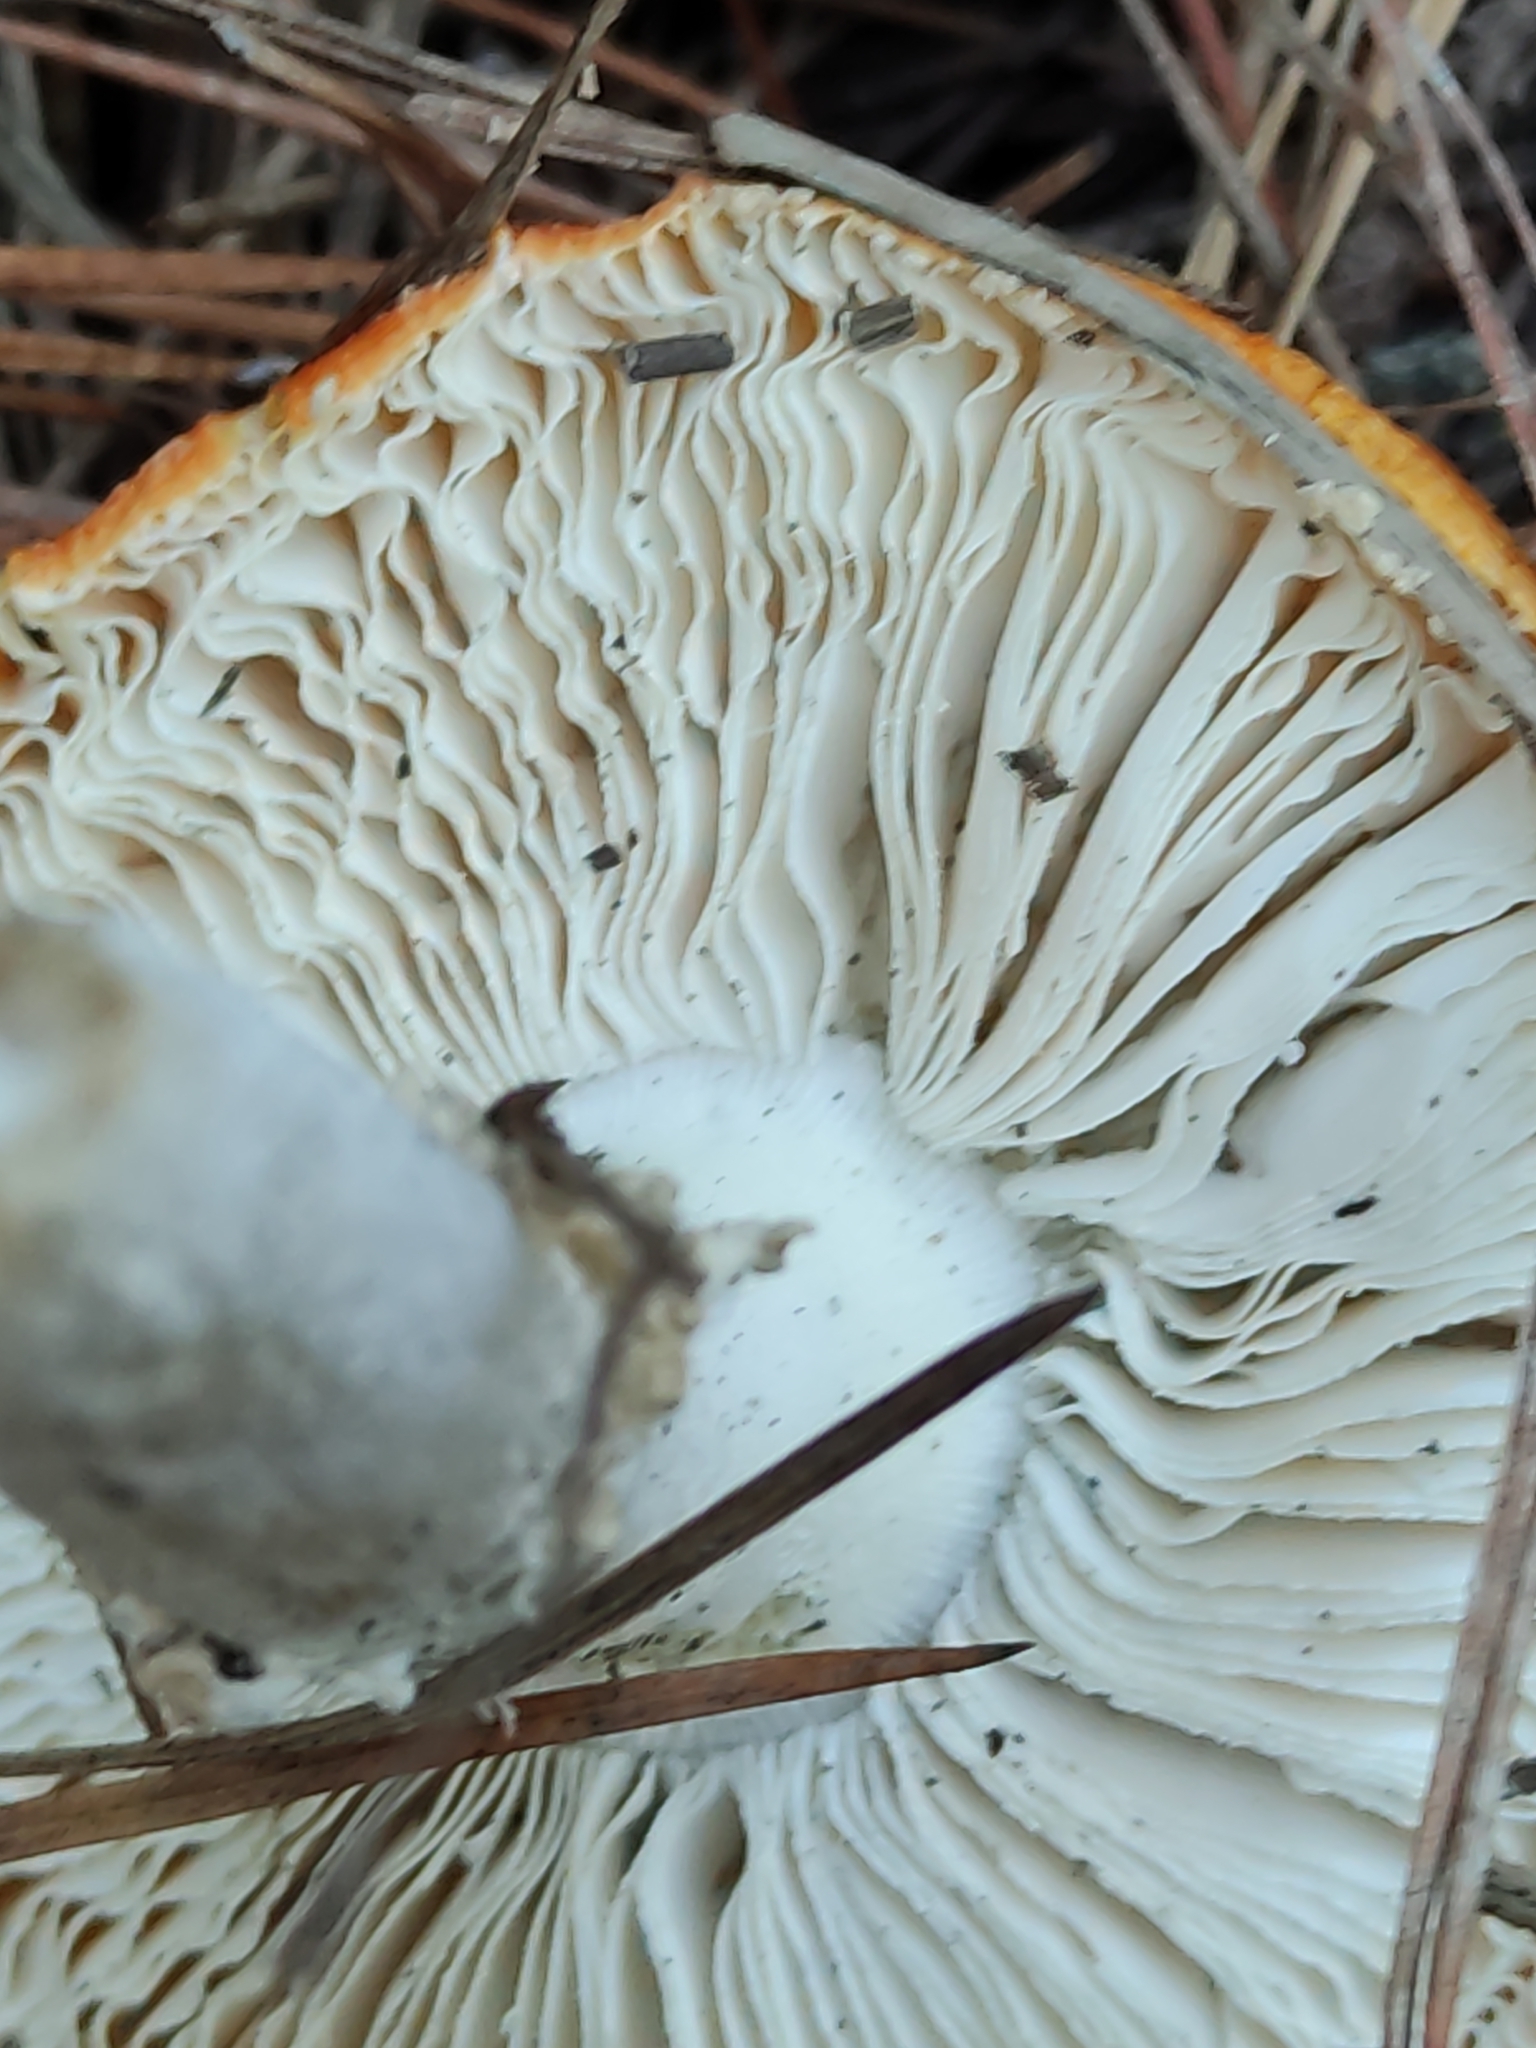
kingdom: Fungi
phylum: Basidiomycota
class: Agaricomycetes
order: Agaricales
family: Amanitaceae
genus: Amanita
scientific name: Amanita muscaria
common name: Fly agaric
